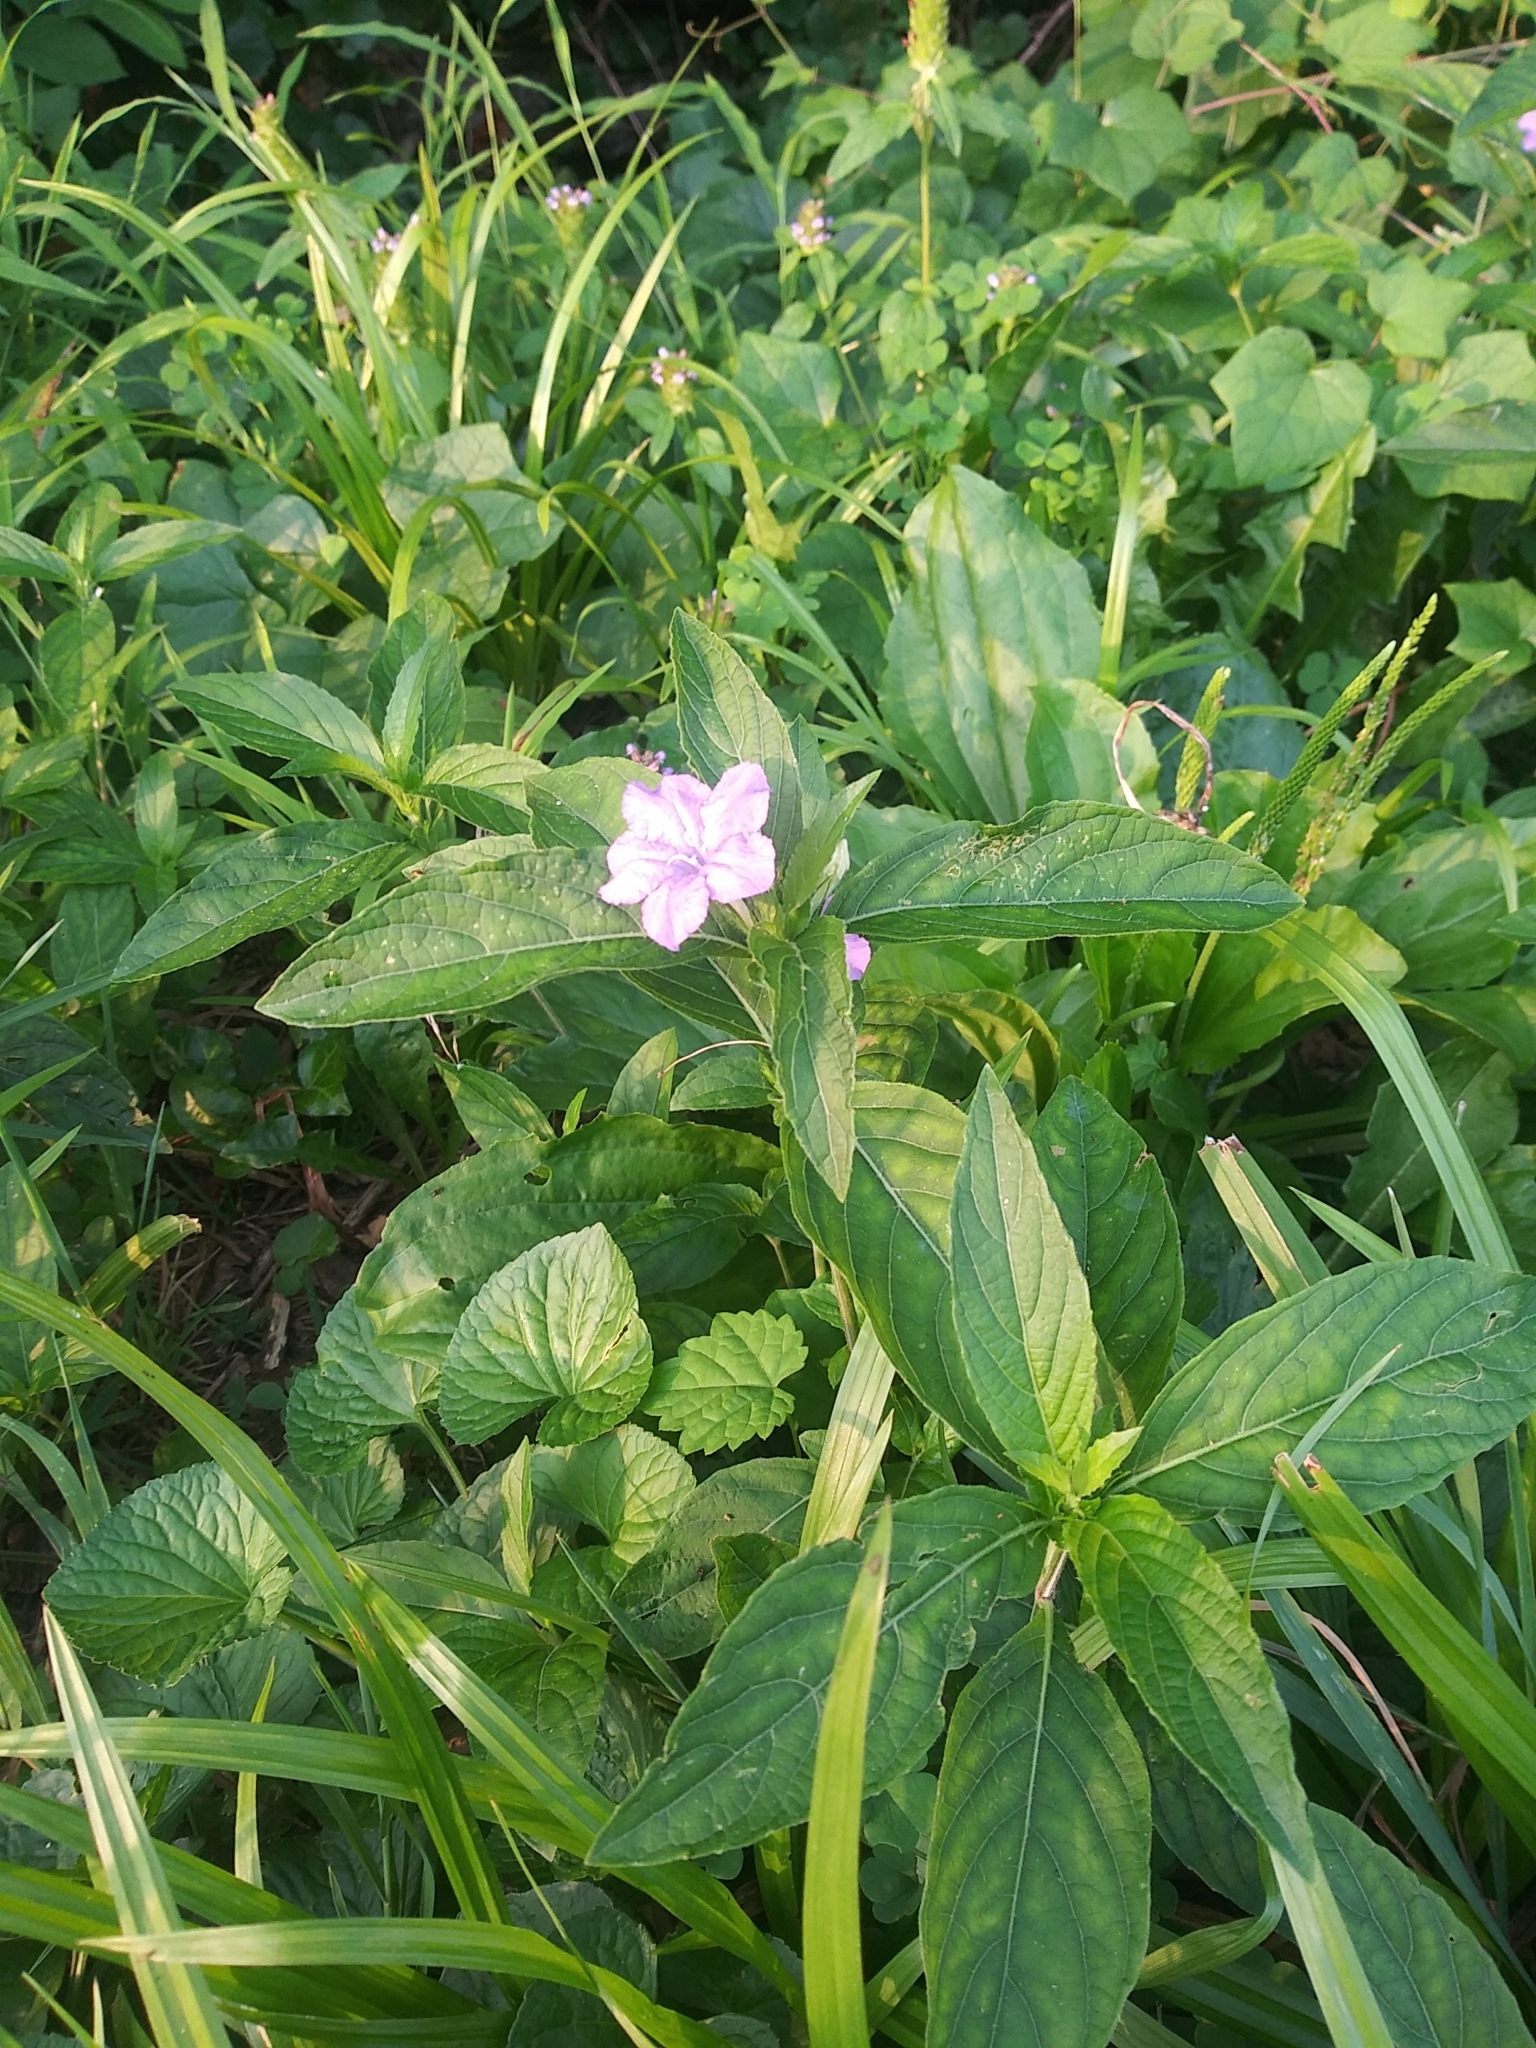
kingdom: Plantae
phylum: Tracheophyta
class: Magnoliopsida
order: Lamiales
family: Acanthaceae
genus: Ruellia
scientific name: Ruellia caroliniensis
